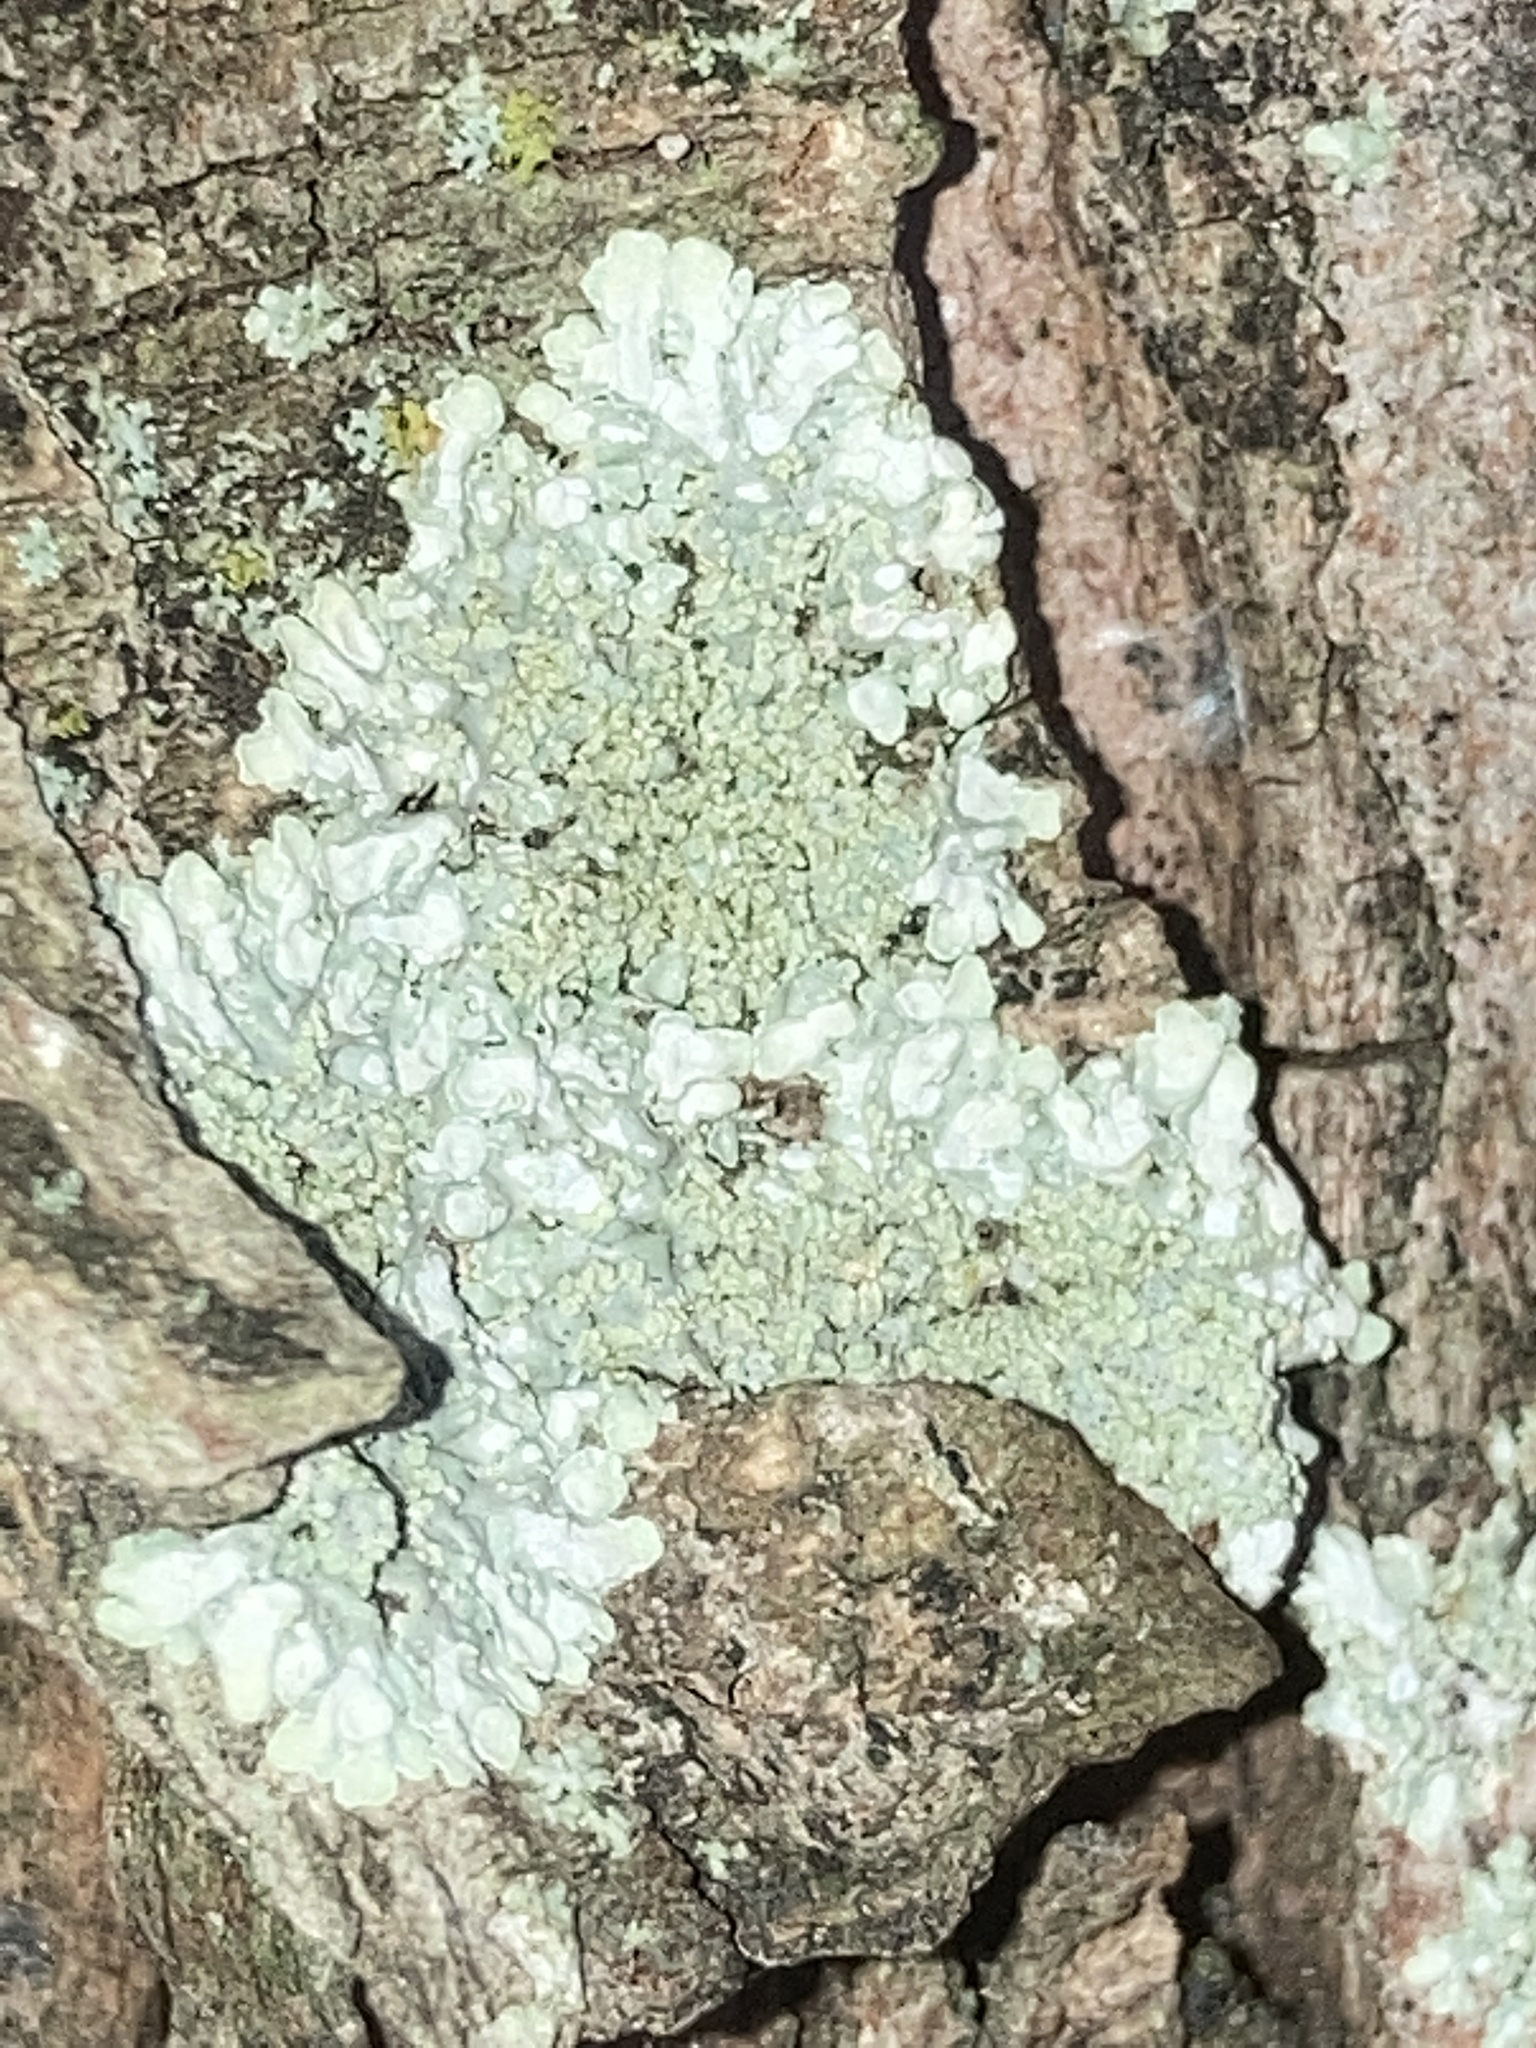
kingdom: Fungi
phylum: Ascomycota
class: Lecanoromycetes
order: Caliciales
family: Caliciaceae
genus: Pyxine
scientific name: Pyxine subcinerea
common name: Mustard lichen
